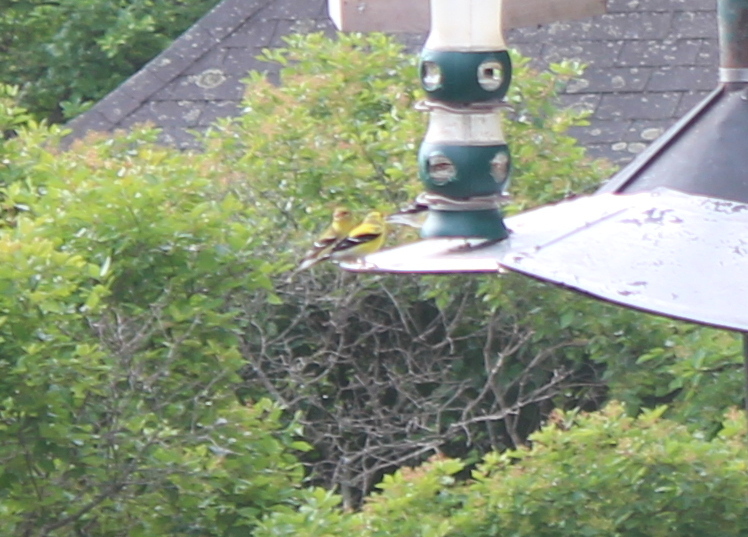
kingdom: Animalia
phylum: Chordata
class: Aves
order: Passeriformes
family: Fringillidae
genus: Spinus
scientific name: Spinus tristis
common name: American goldfinch
